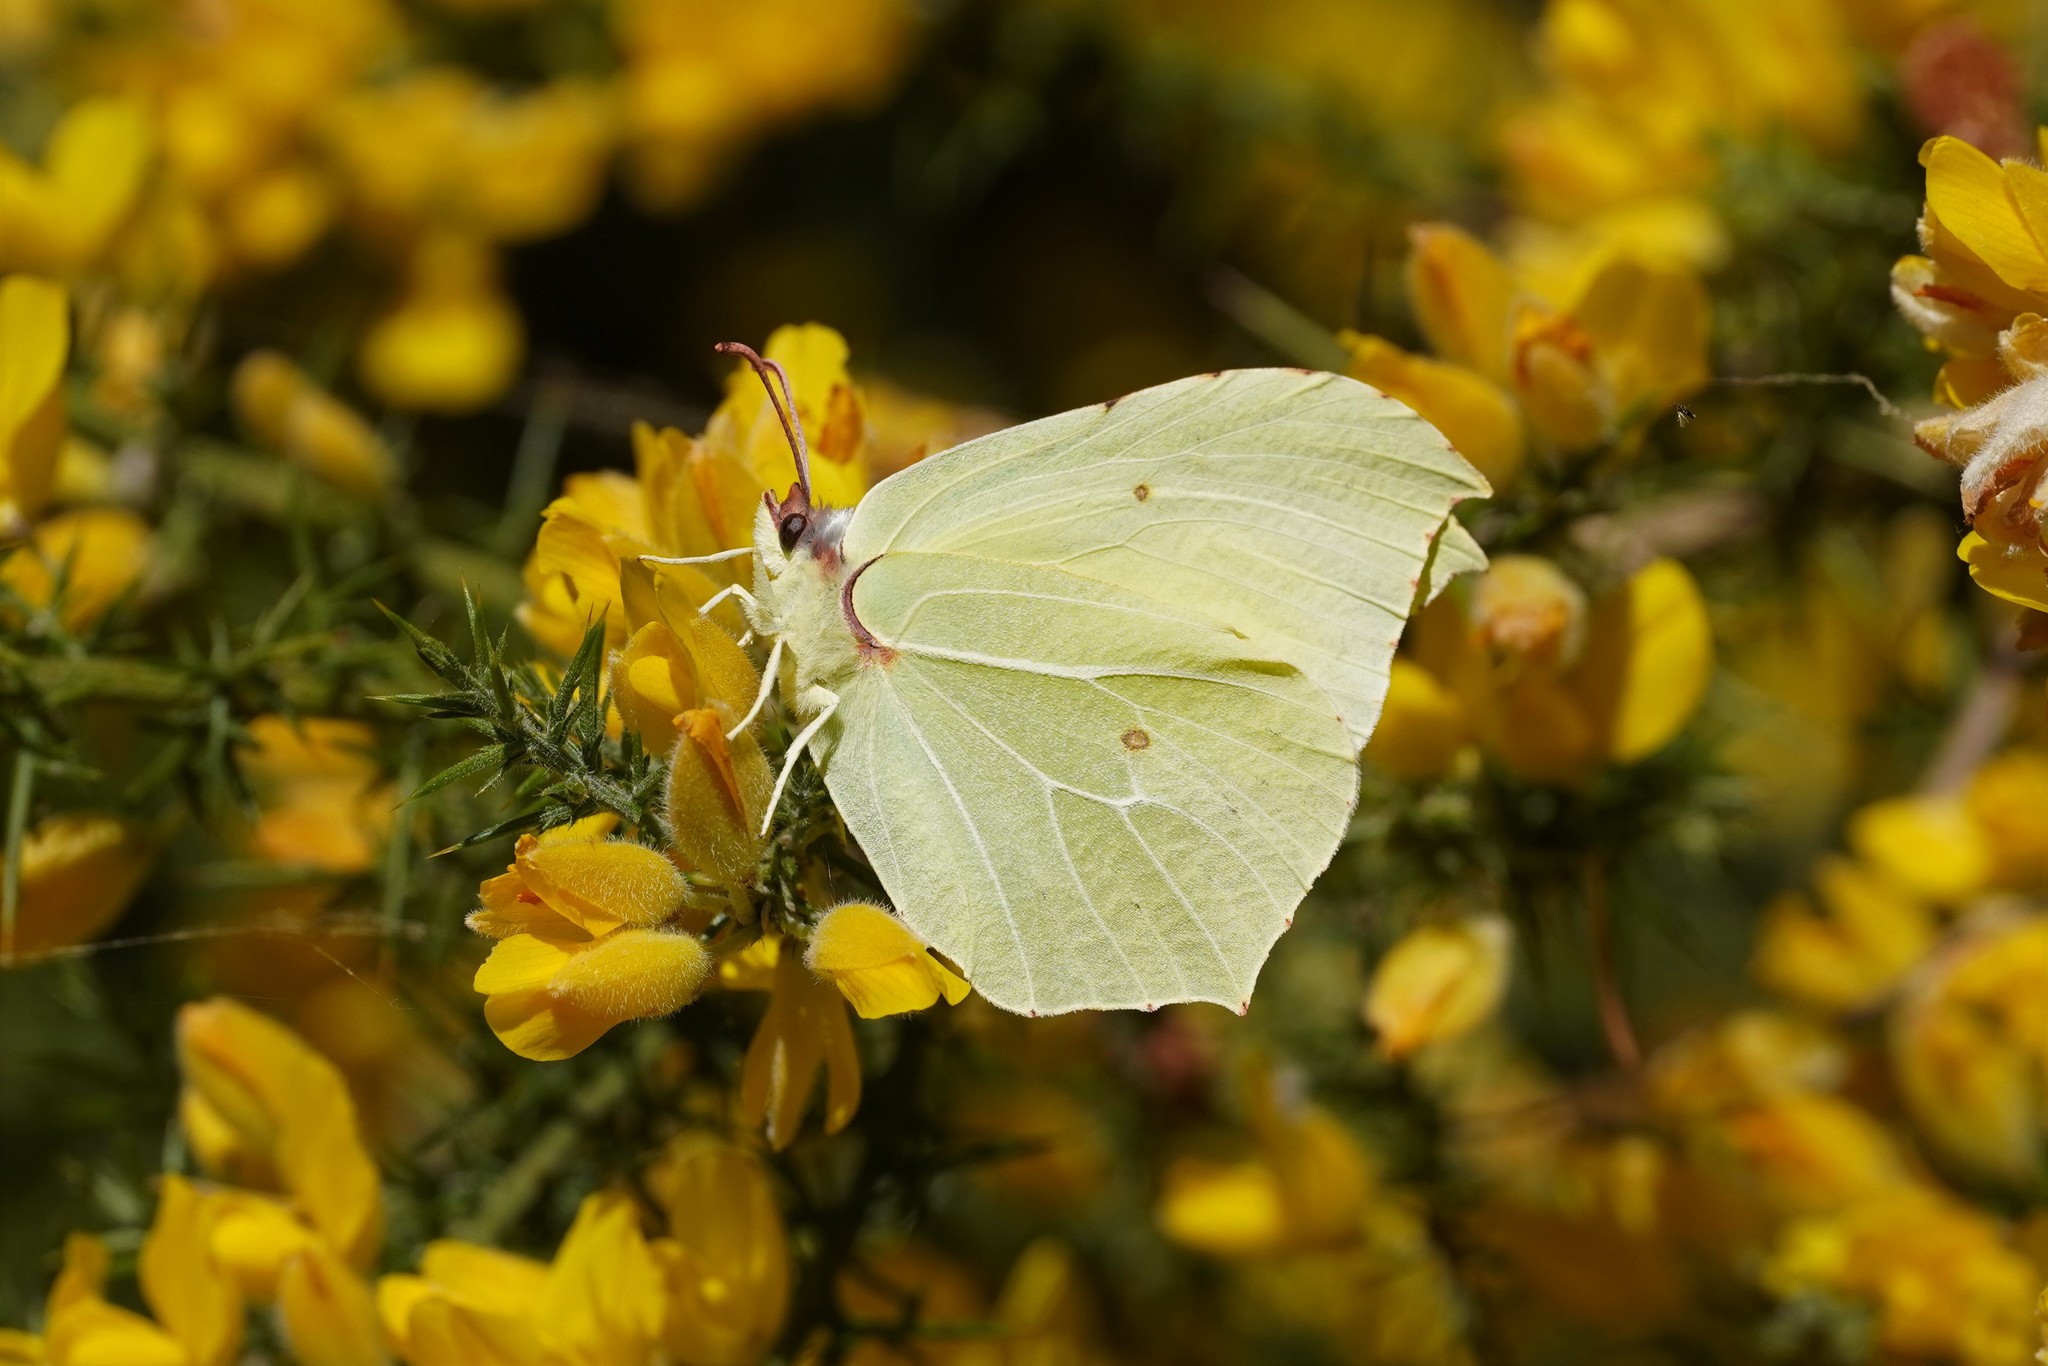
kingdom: Animalia
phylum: Arthropoda
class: Insecta
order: Lepidoptera
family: Pieridae
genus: Gonepteryx
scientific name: Gonepteryx rhamni
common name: Brimstone
